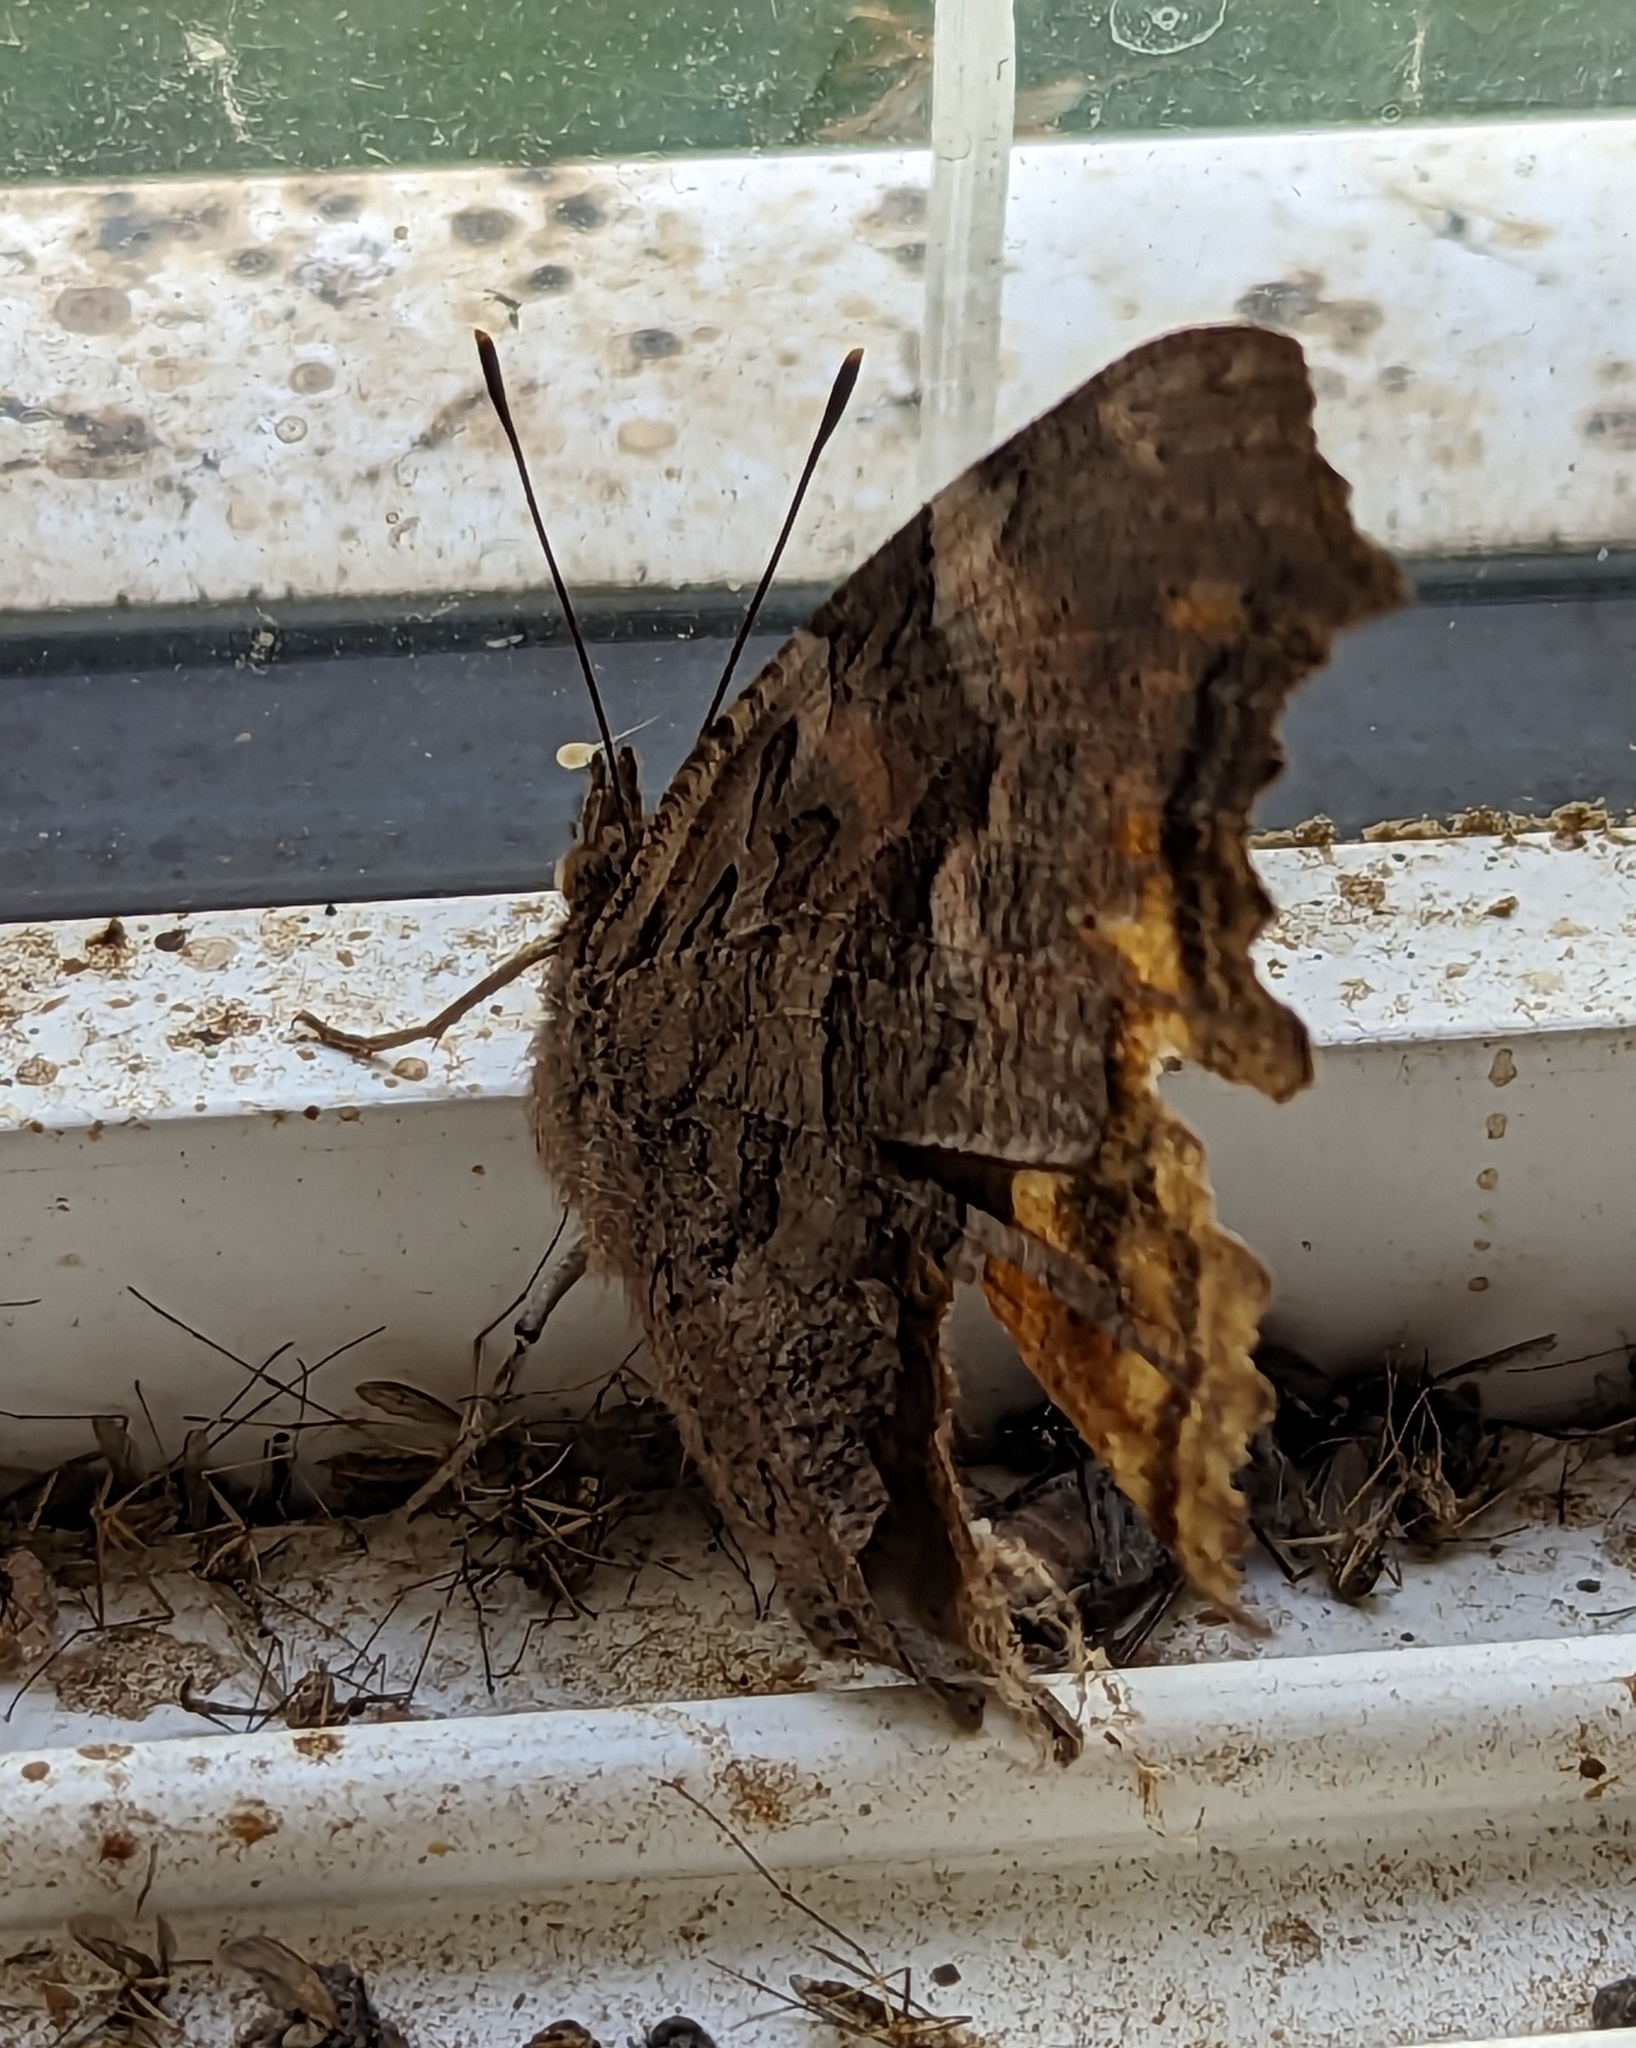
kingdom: Animalia
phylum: Arthropoda
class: Insecta
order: Lepidoptera
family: Nymphalidae
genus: Polygonia
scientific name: Polygonia vaualbum
